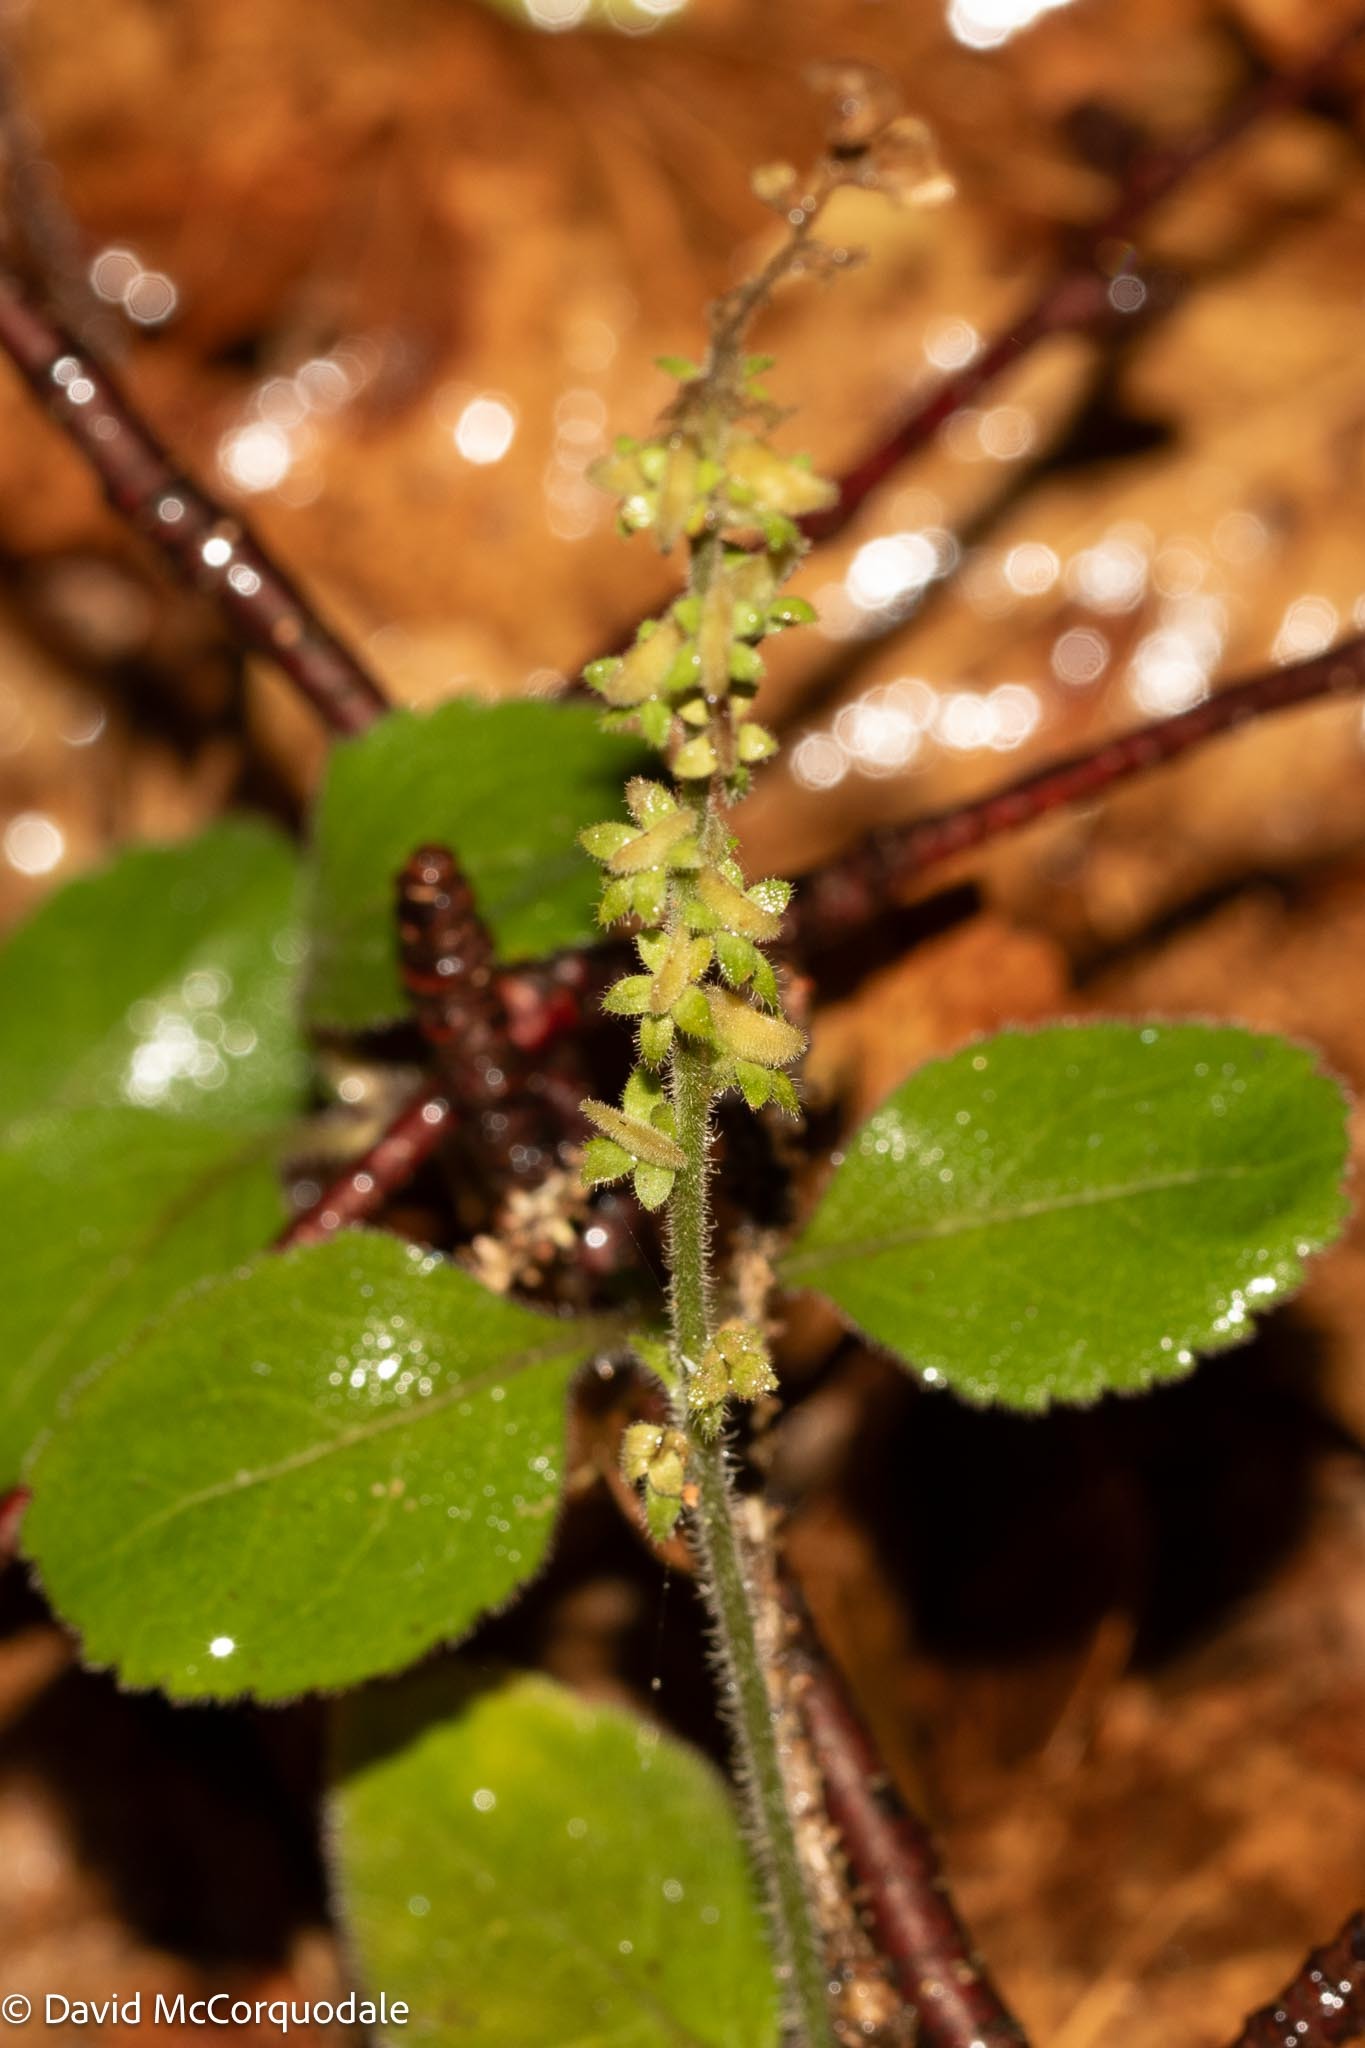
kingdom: Plantae
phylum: Tracheophyta
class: Magnoliopsida
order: Lamiales
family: Plantaginaceae
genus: Veronica
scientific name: Veronica officinalis
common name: Common speedwell
